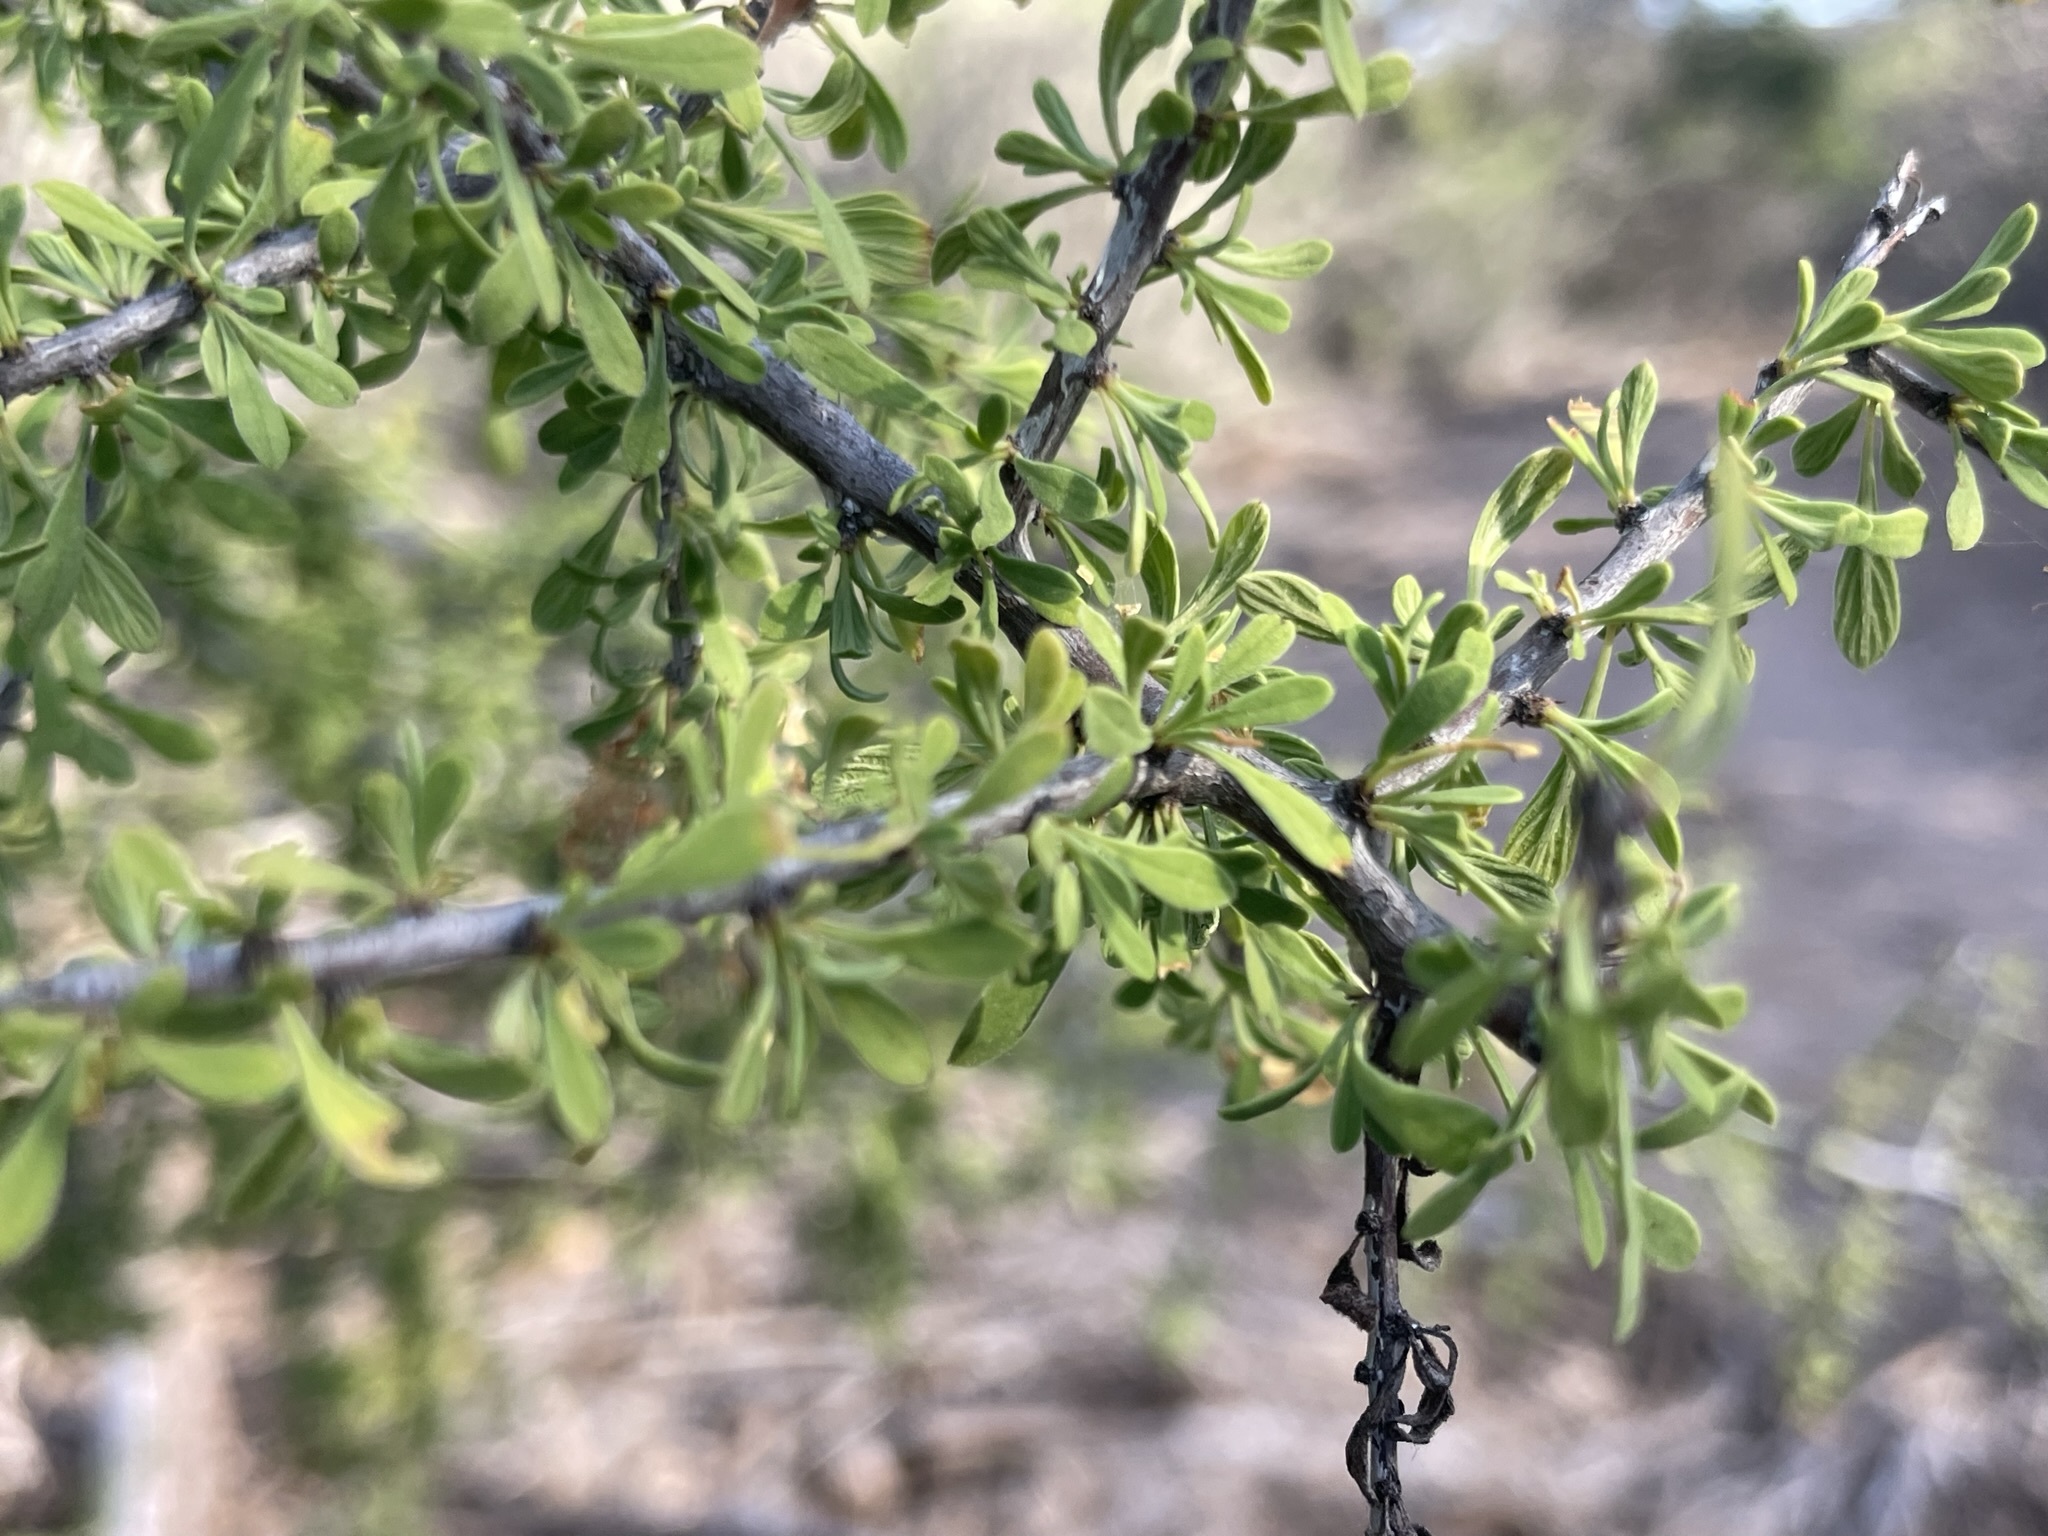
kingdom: Plantae
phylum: Tracheophyta
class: Magnoliopsida
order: Rosales
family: Rhamnaceae
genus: Condalia
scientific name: Condalia globosa
